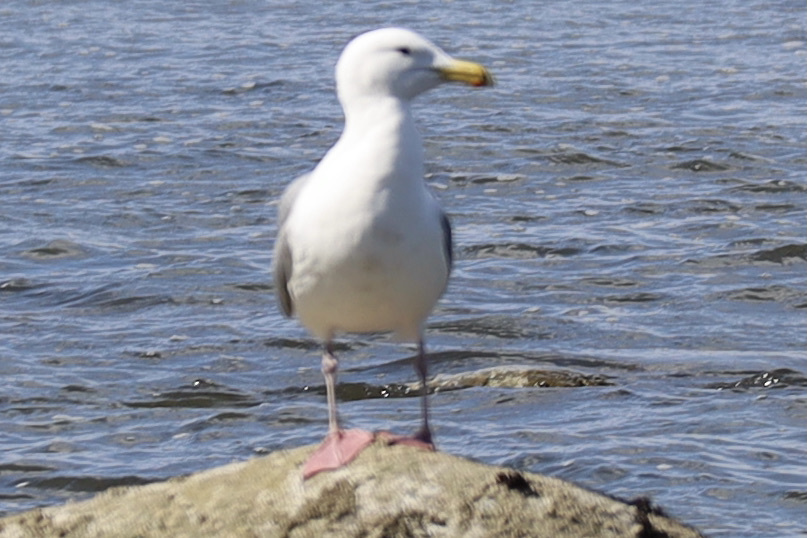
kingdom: Animalia
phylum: Chordata
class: Aves
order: Charadriiformes
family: Laridae
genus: Larus
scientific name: Larus
